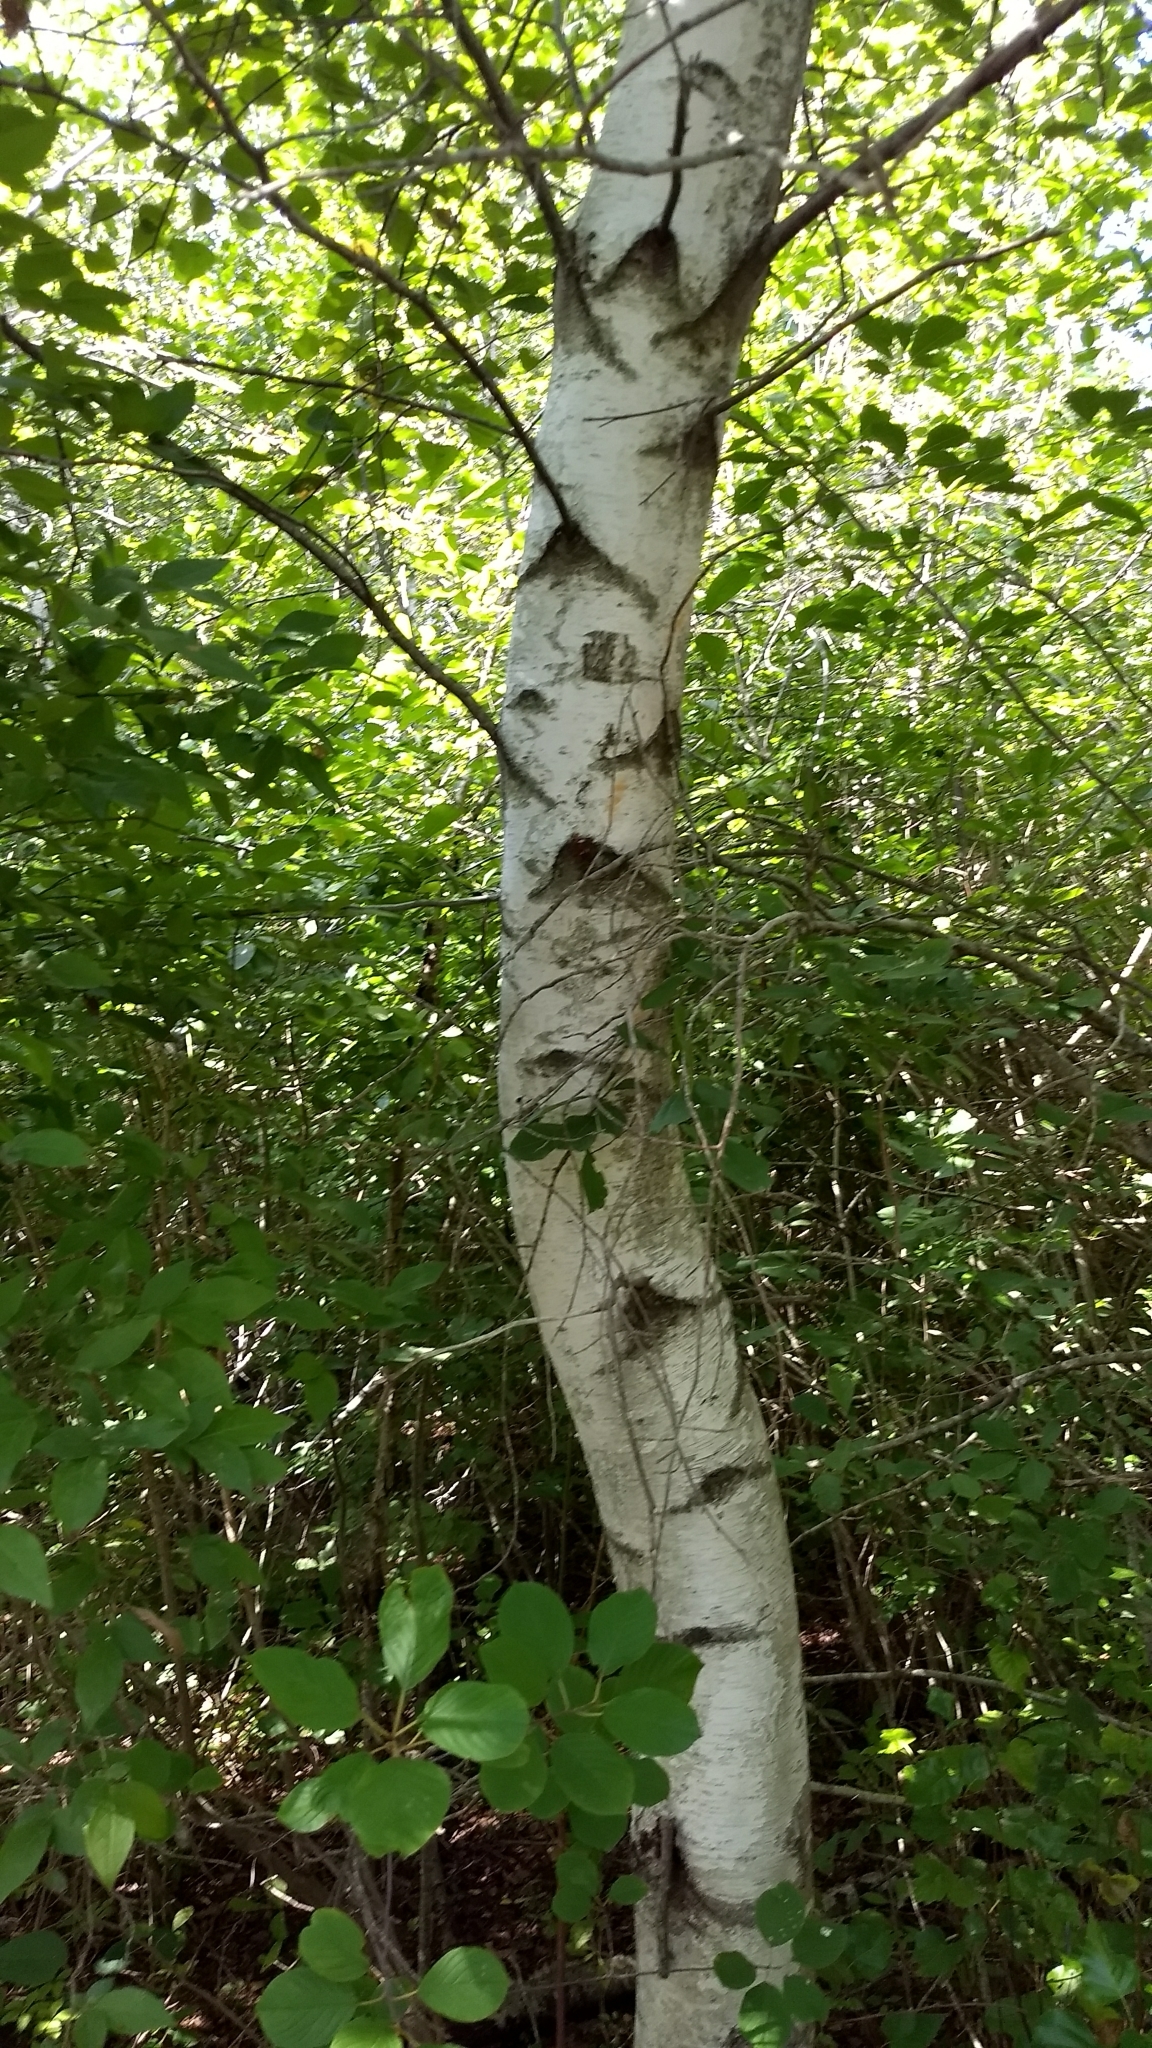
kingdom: Plantae
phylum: Tracheophyta
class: Magnoliopsida
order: Fagales
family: Betulaceae
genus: Betula
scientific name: Betula populifolia
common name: Fire birch
